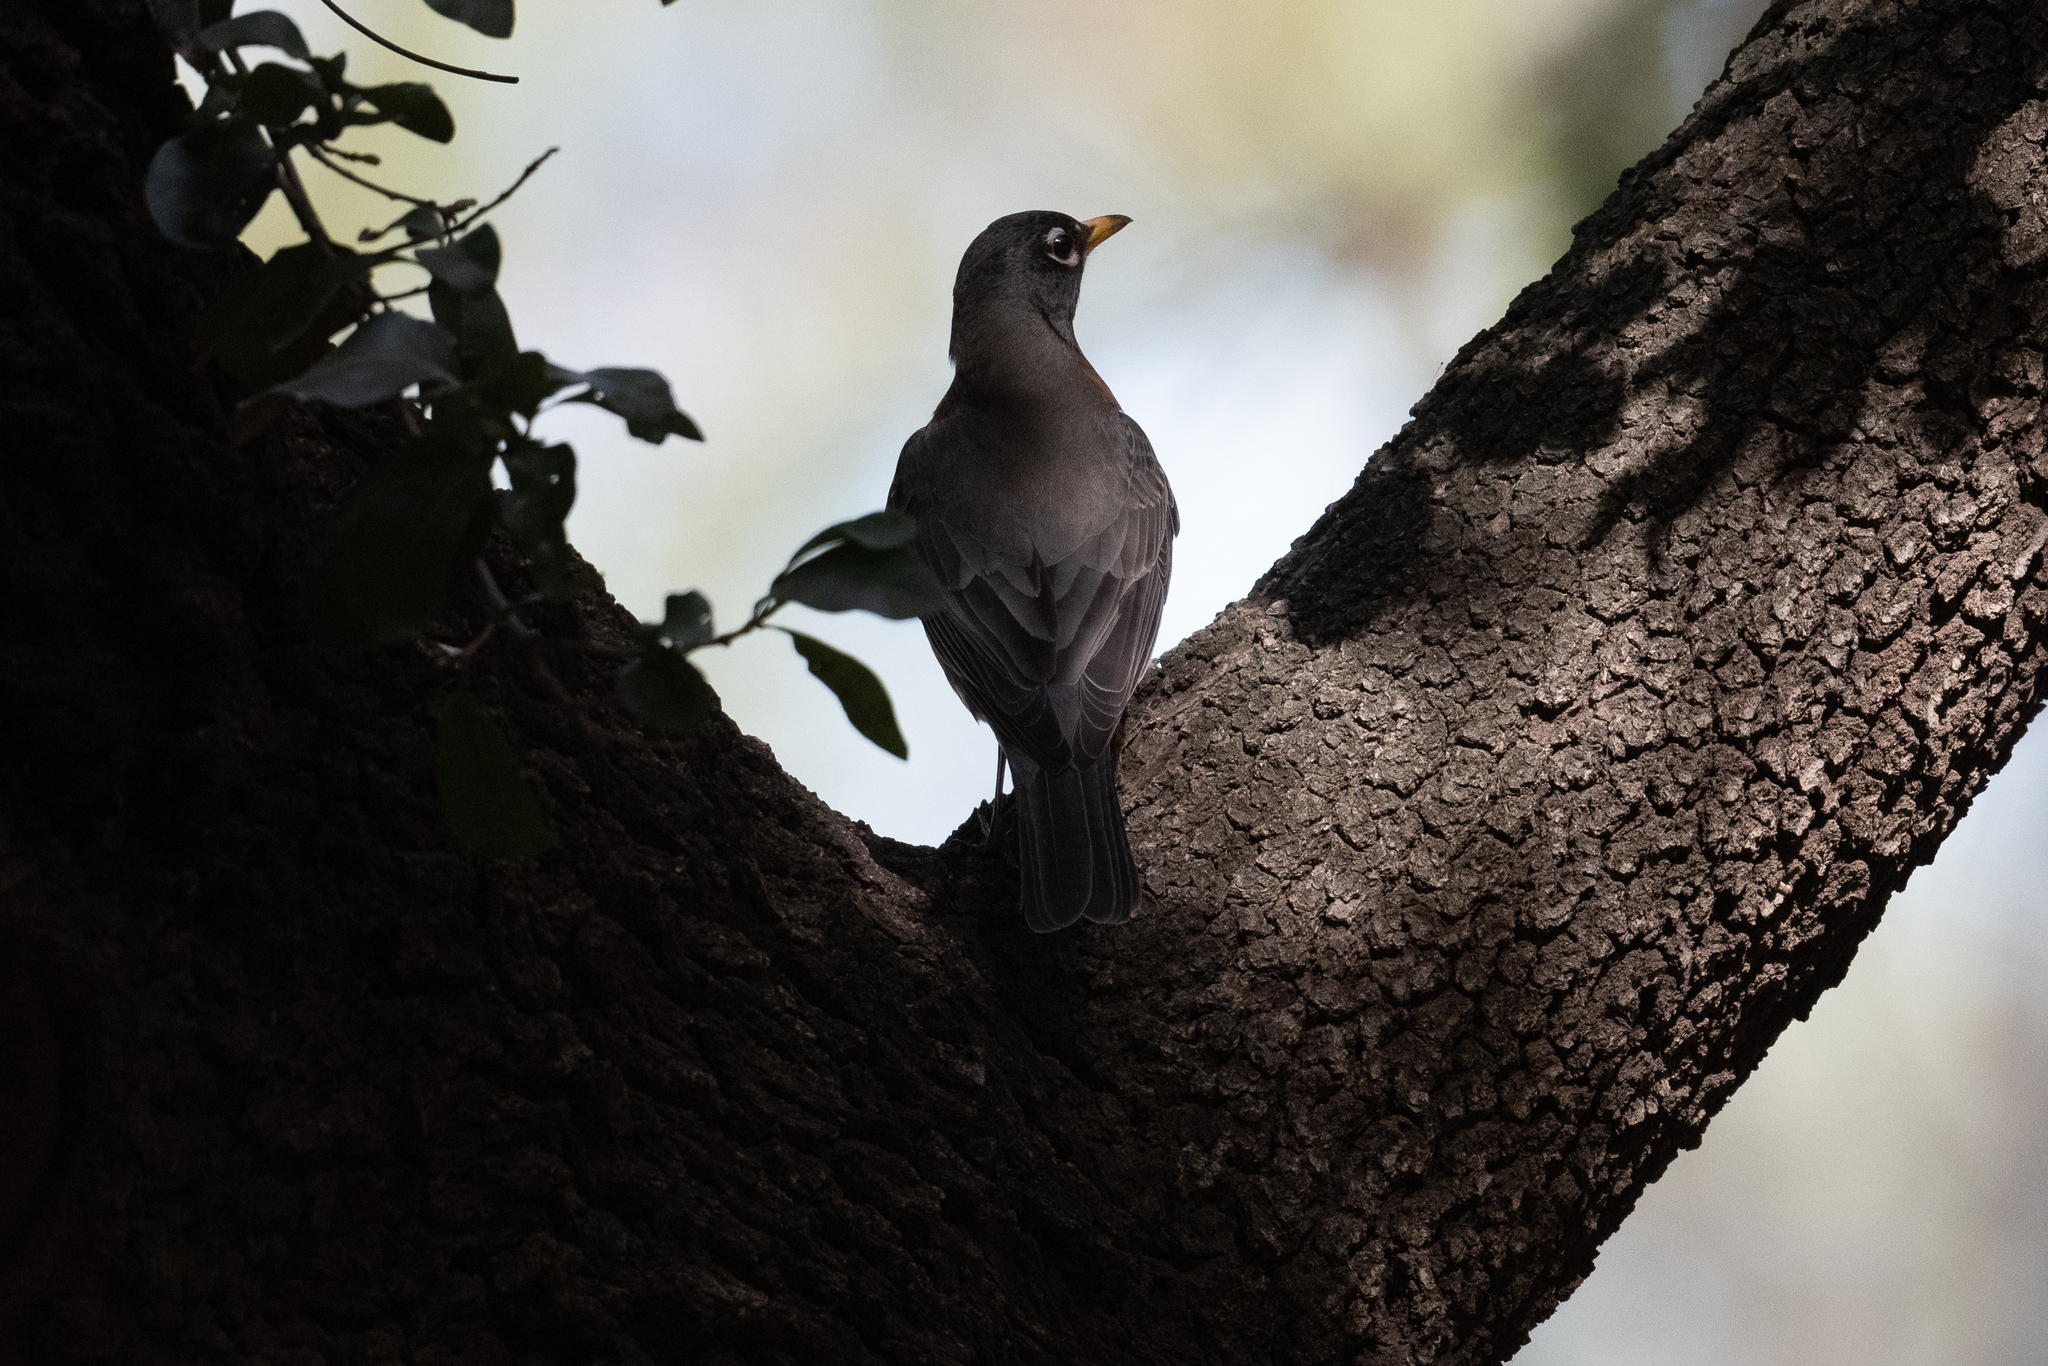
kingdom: Animalia
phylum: Chordata
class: Aves
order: Passeriformes
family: Turdidae
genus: Turdus
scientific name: Turdus migratorius
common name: American robin
